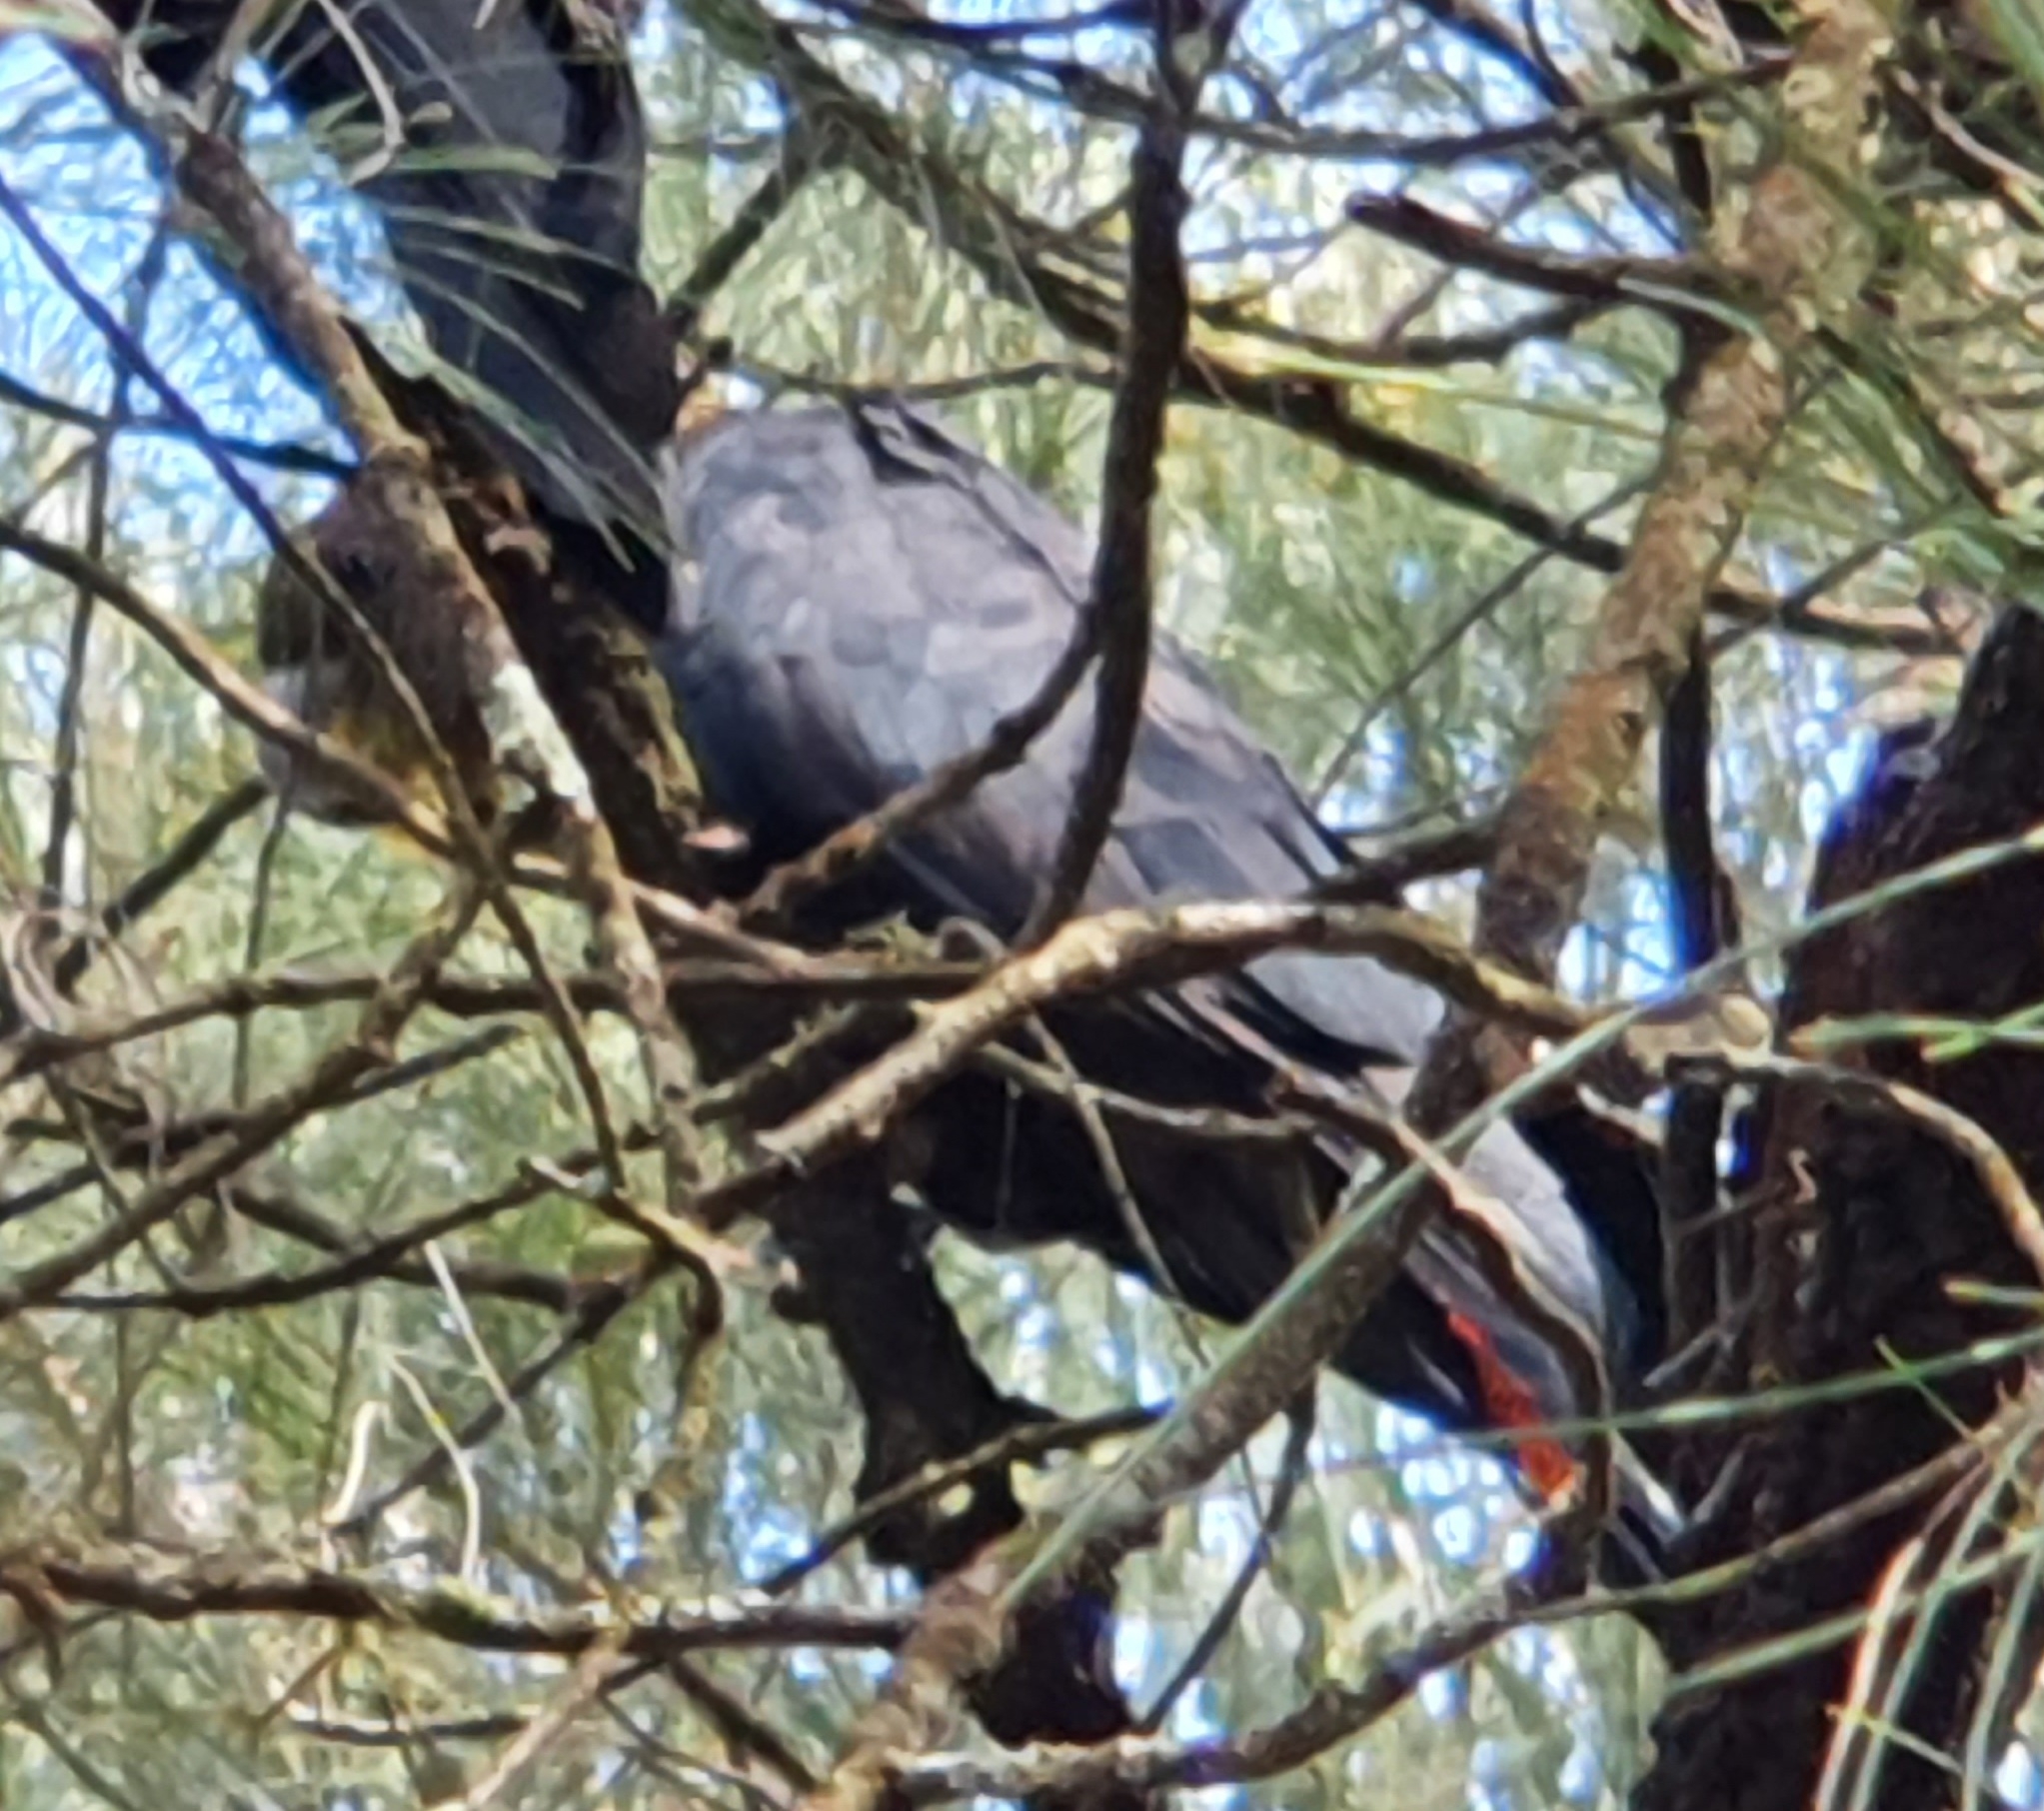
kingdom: Animalia
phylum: Chordata
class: Aves
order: Psittaciformes
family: Psittacidae
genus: Calyptorhynchus
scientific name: Calyptorhynchus lathami
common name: Glossy black cockatoo
